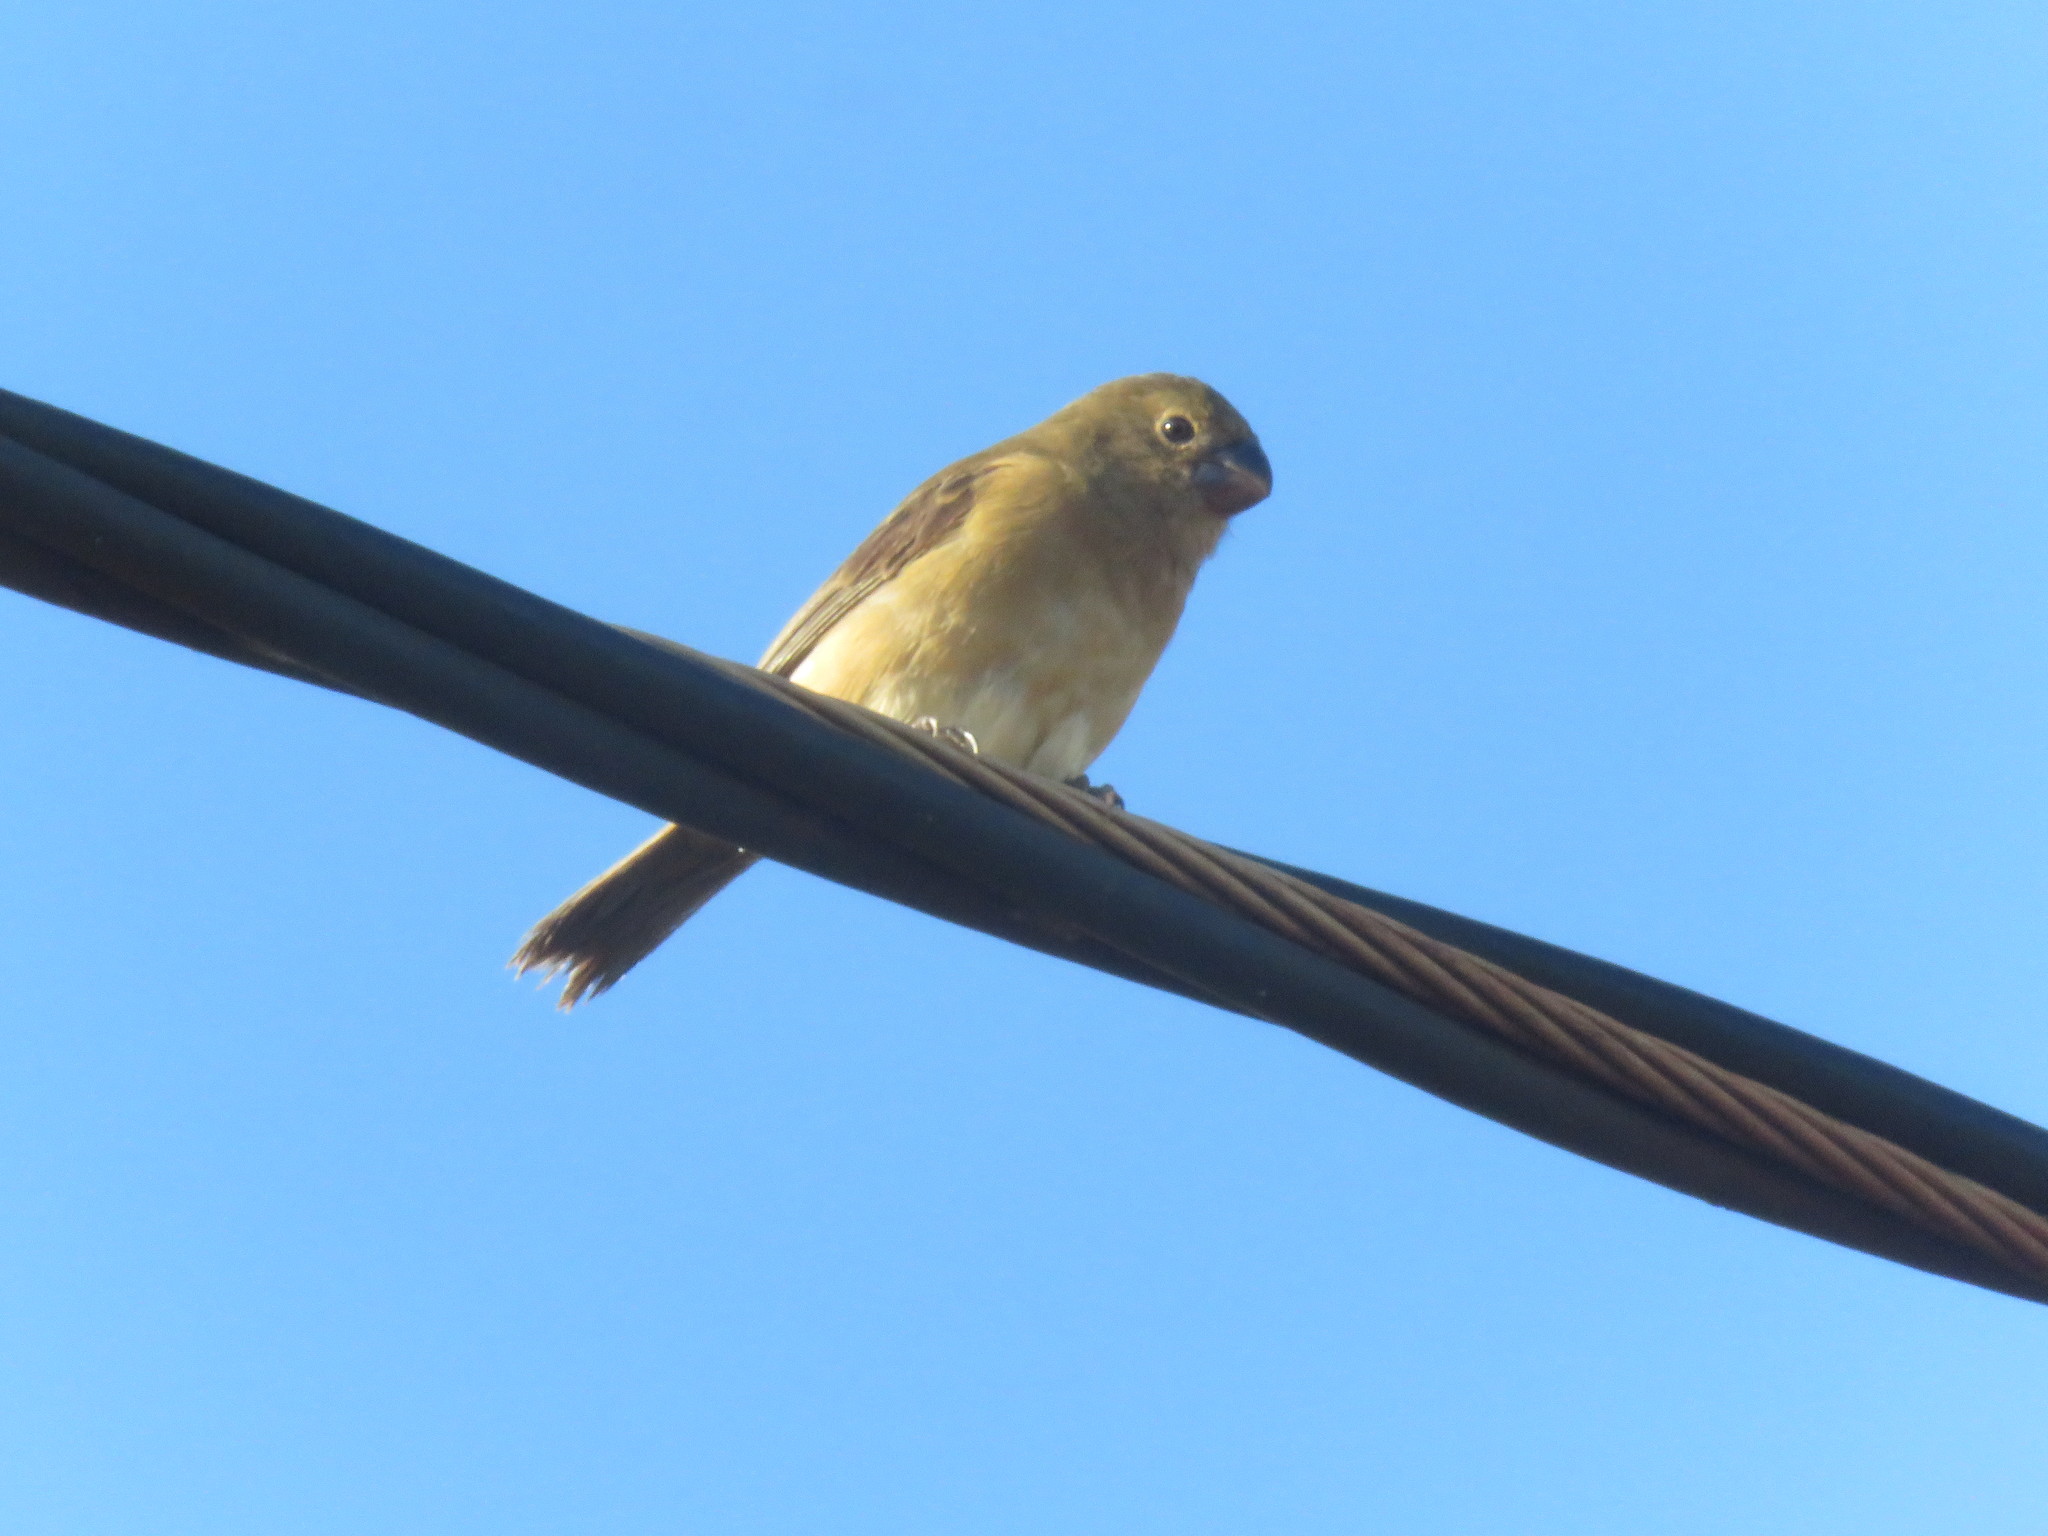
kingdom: Animalia
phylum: Chordata
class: Aves
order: Passeriformes
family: Thraupidae
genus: Sporophila
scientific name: Sporophila leucoptera
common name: White-bellied seedeater
